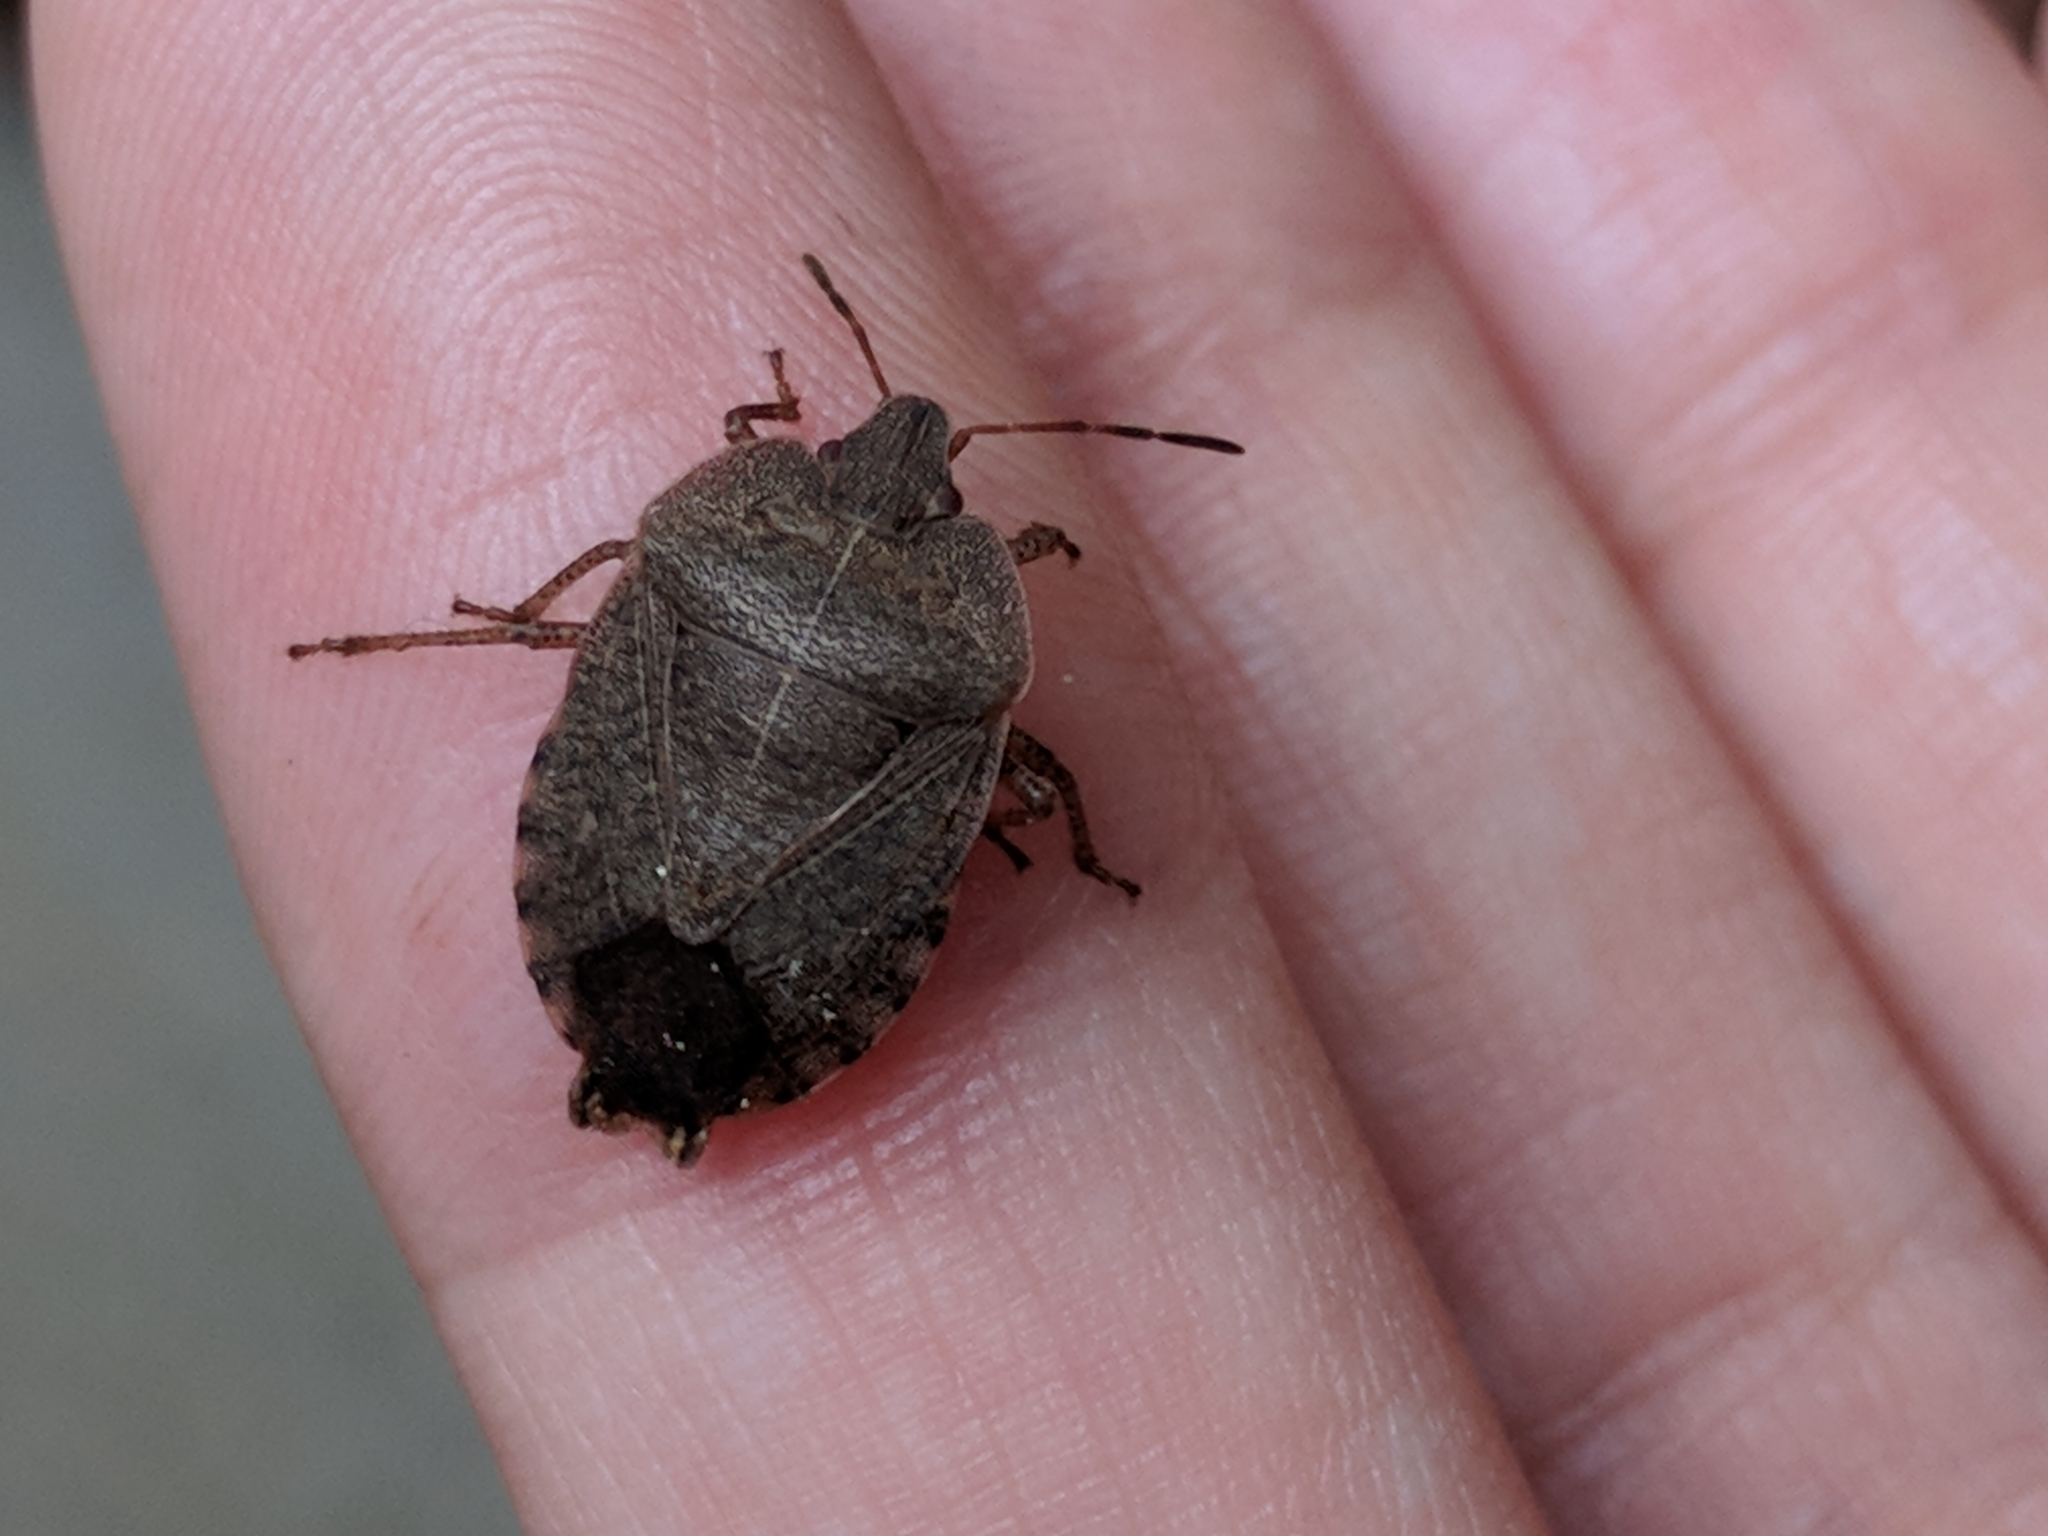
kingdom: Animalia
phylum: Arthropoda
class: Insecta
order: Hemiptera
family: Pentatomidae
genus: Menecles
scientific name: Menecles insertus
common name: Elf shoe stink bug
